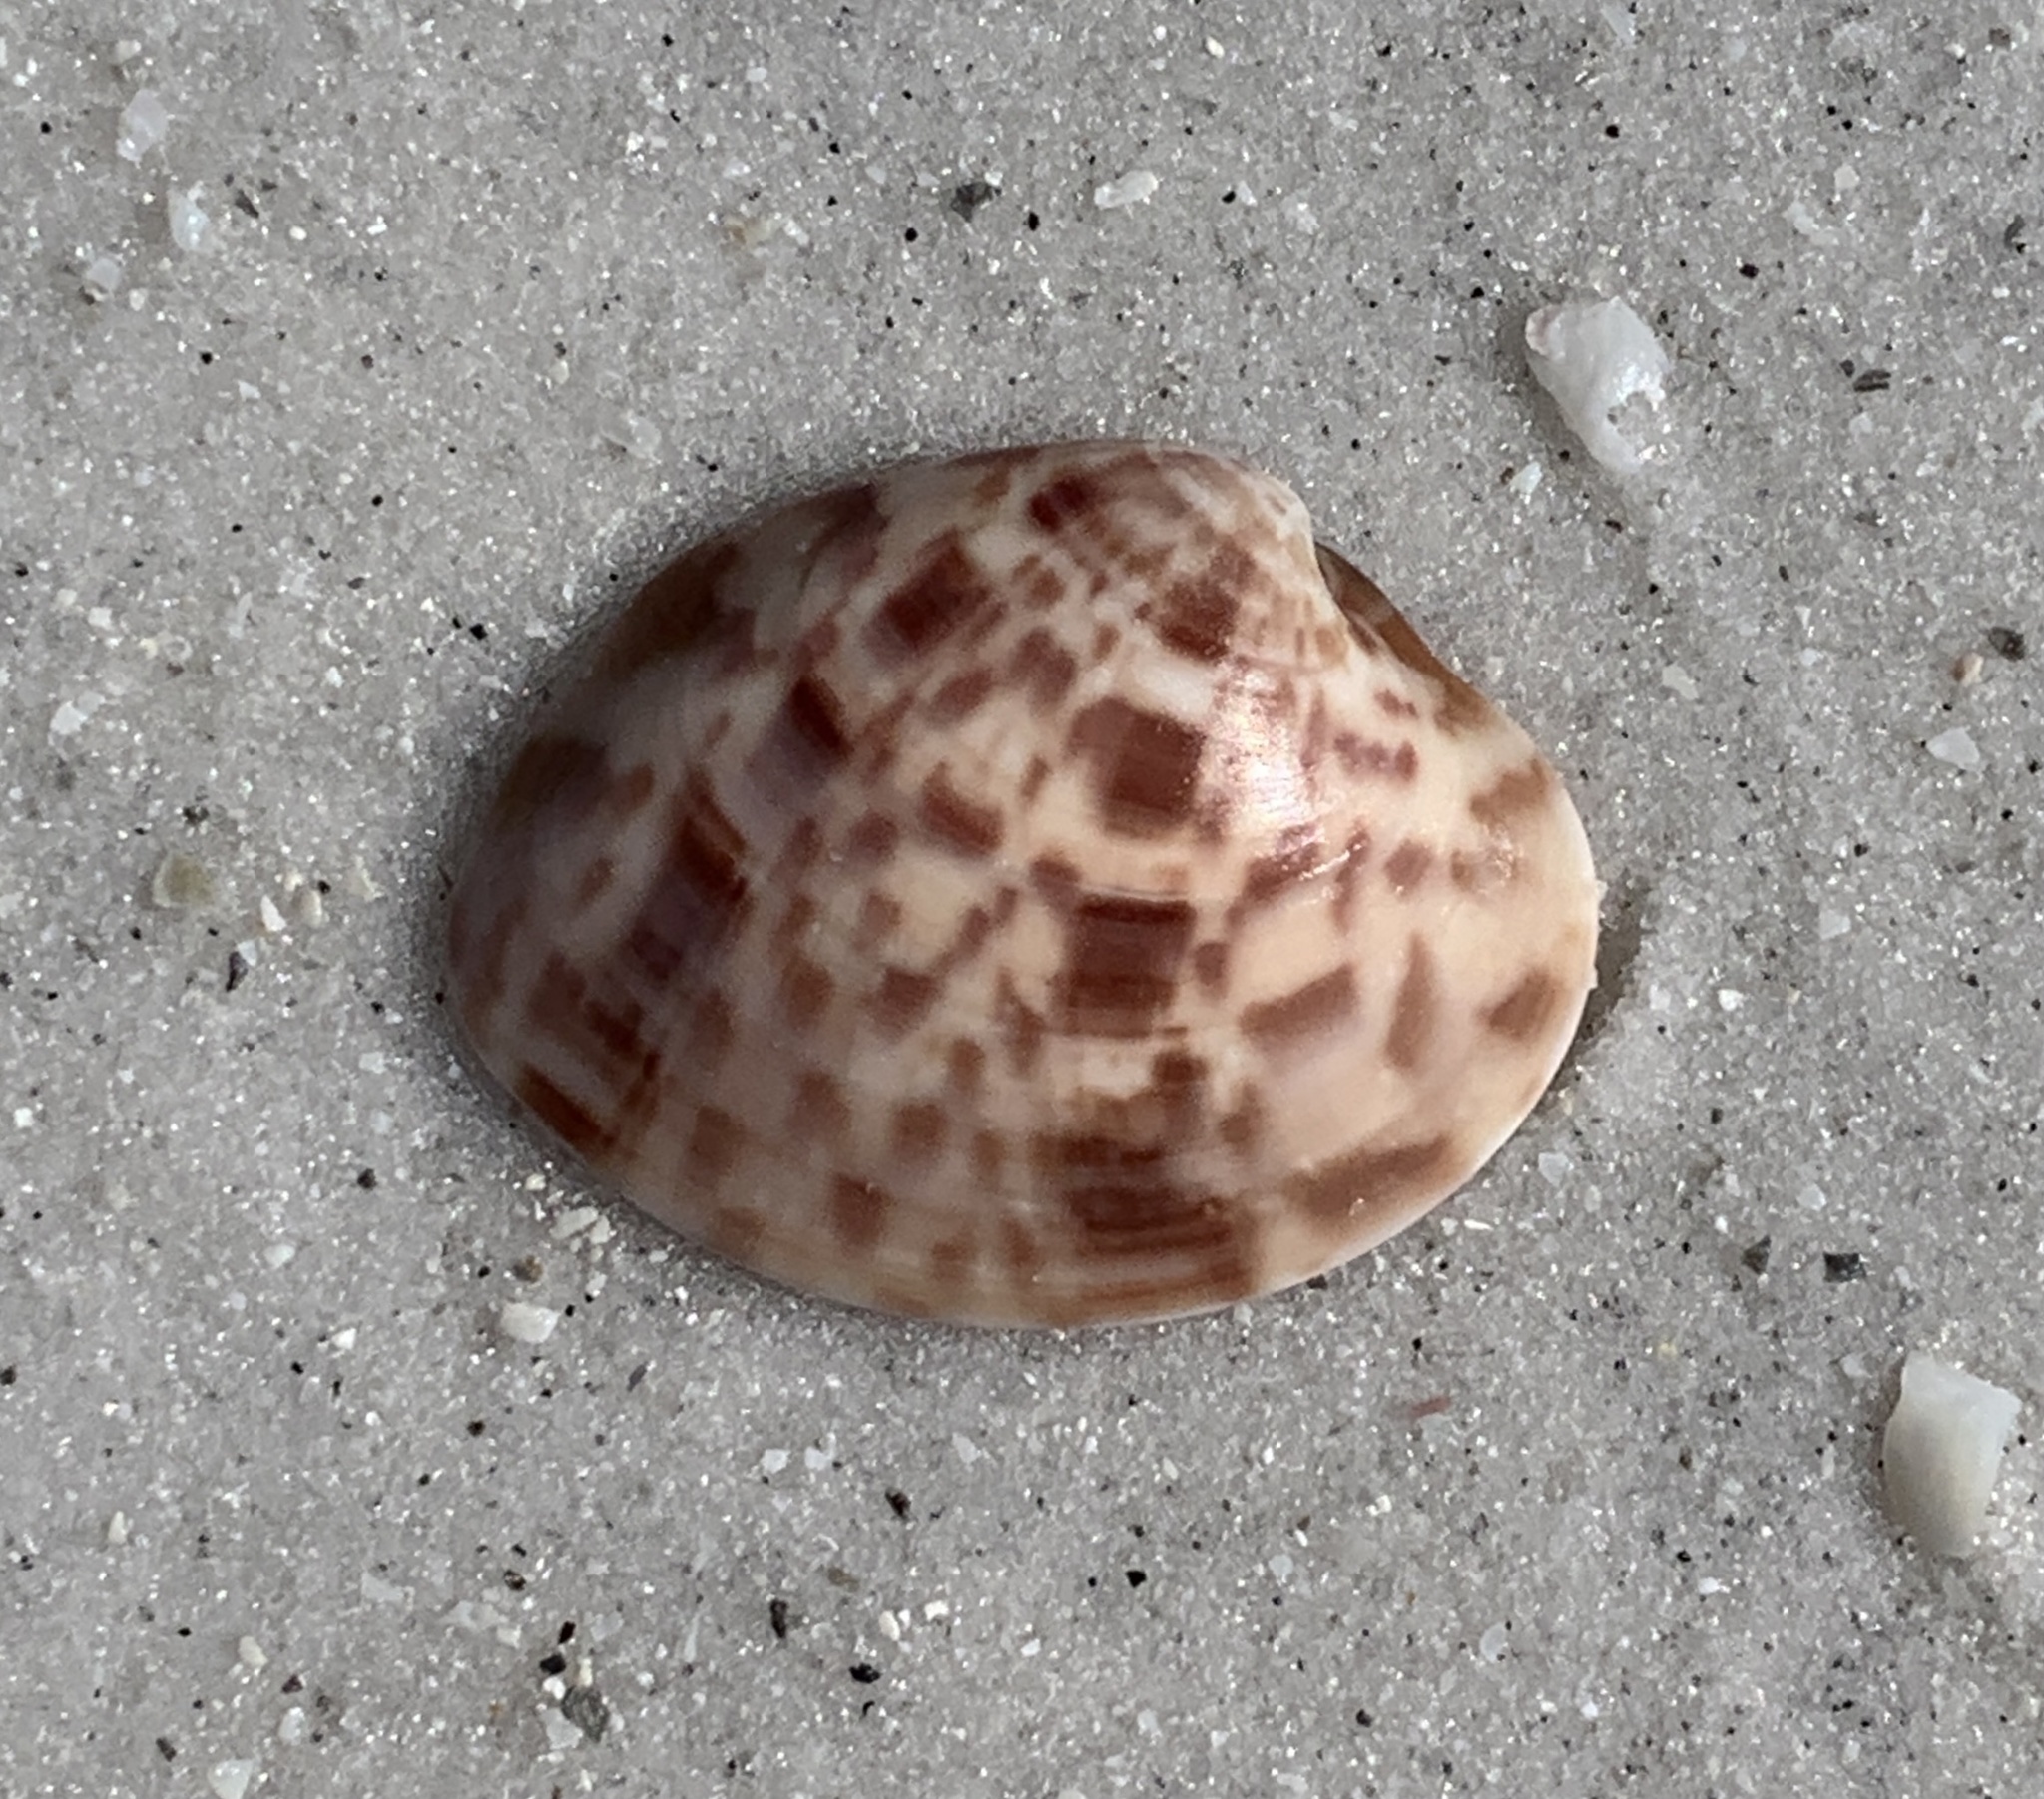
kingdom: Animalia
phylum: Mollusca
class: Bivalvia
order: Venerida
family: Veneridae
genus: Megapitaria
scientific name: Megapitaria maculata
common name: Calico clam
